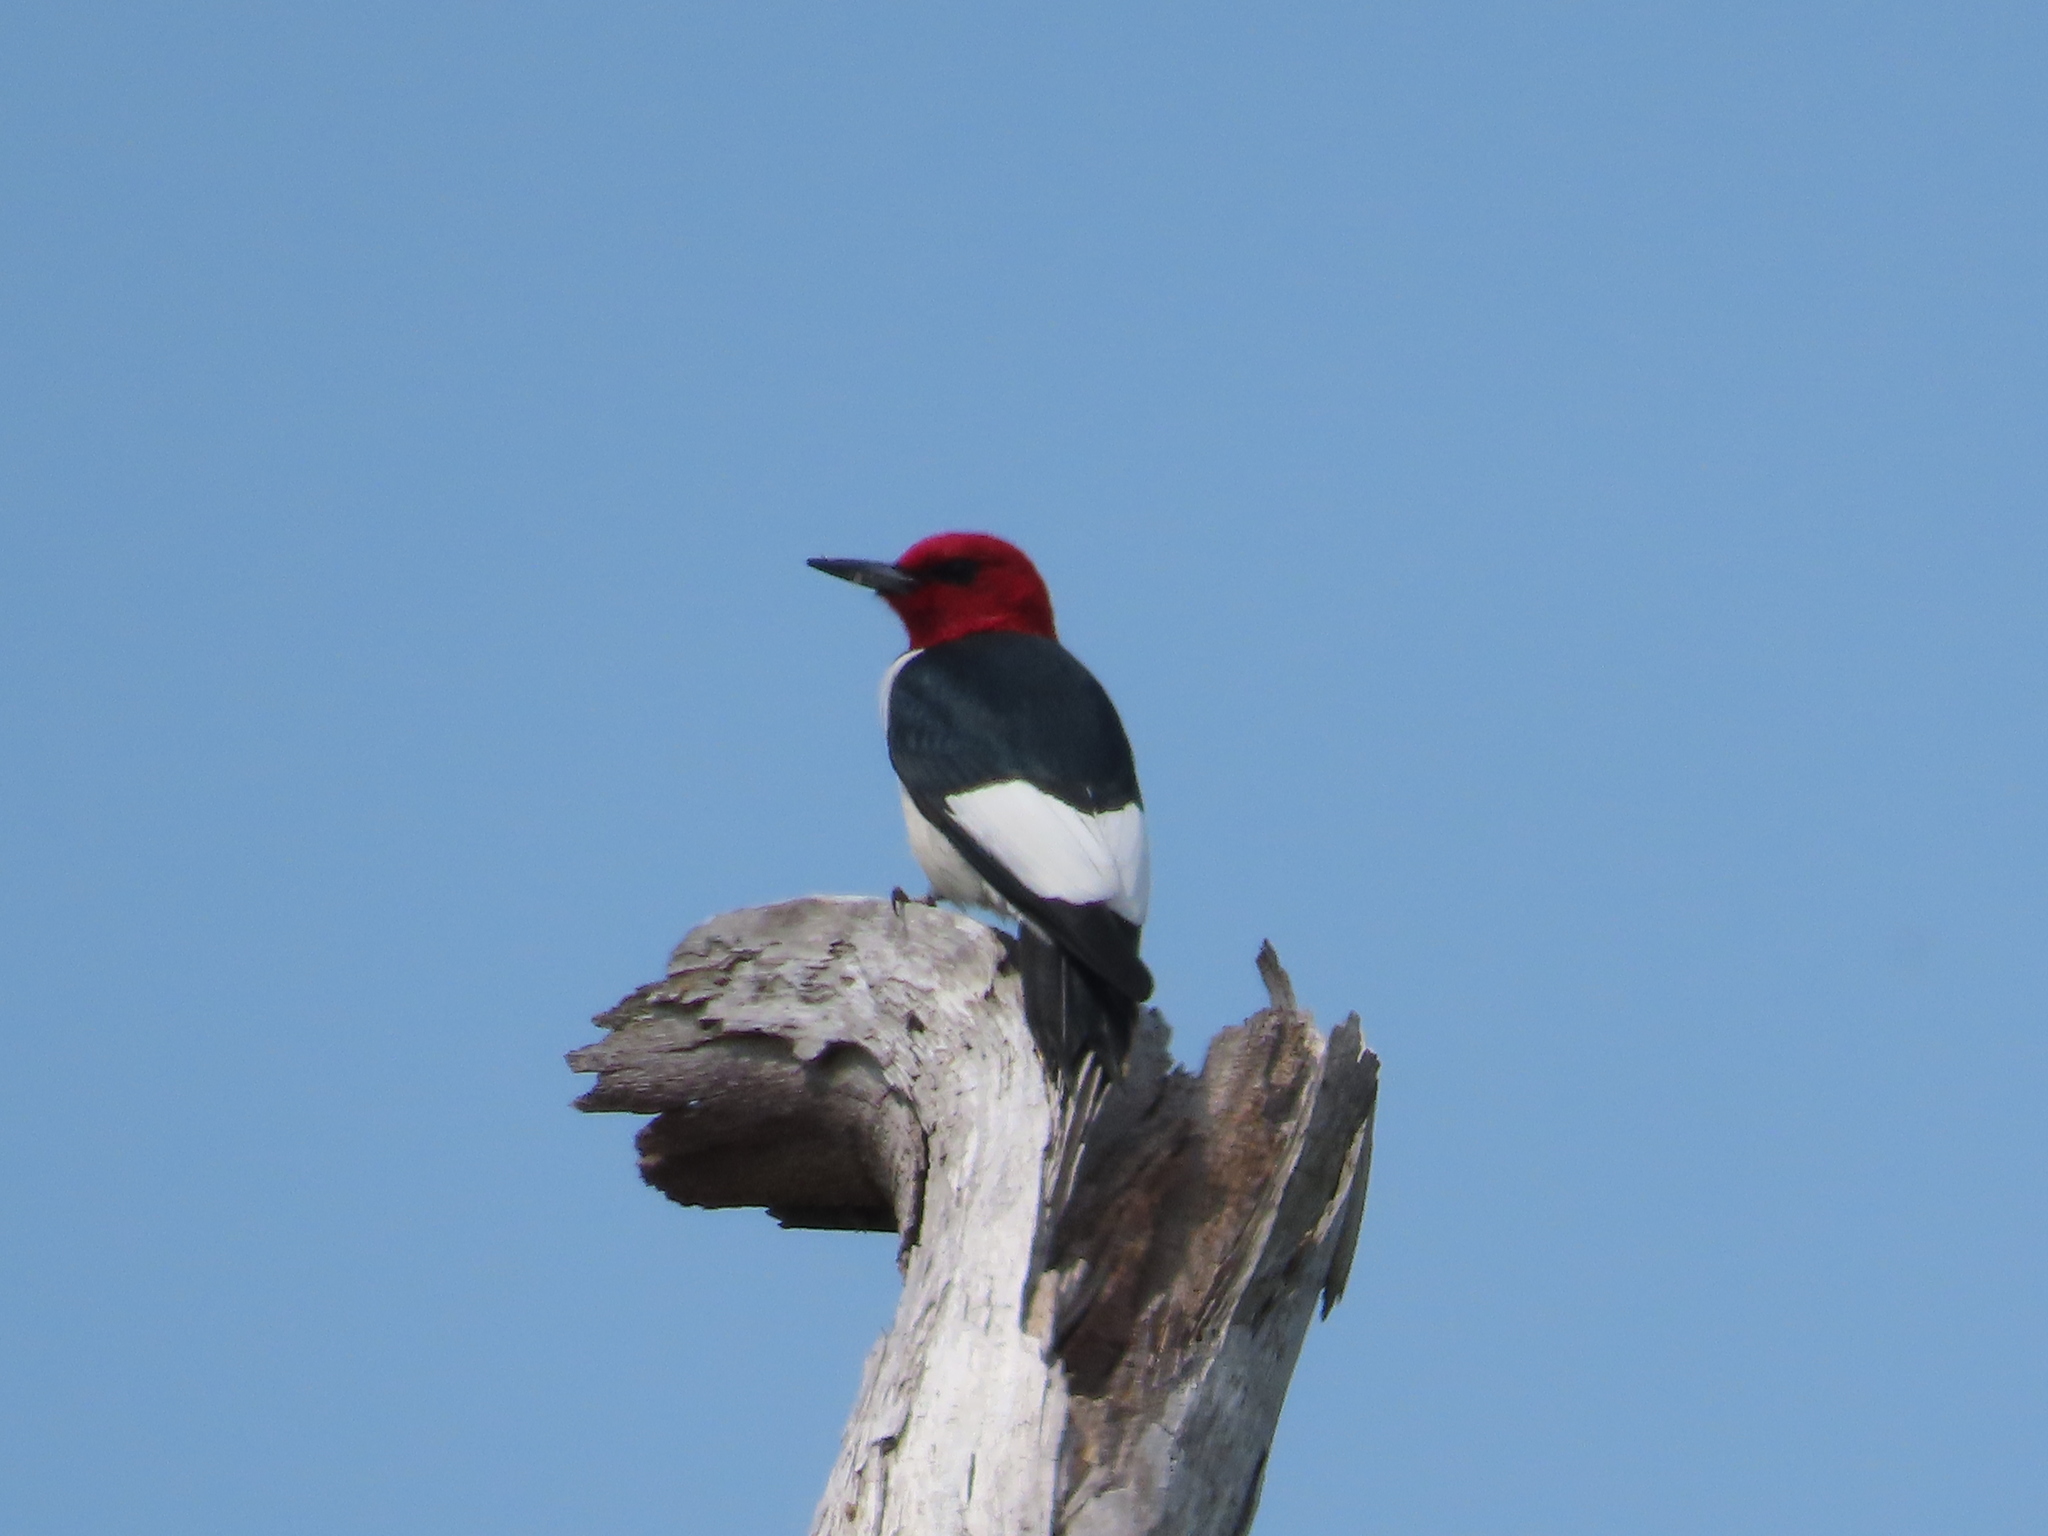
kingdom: Animalia
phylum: Chordata
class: Aves
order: Piciformes
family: Picidae
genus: Melanerpes
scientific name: Melanerpes erythrocephalus
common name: Red-headed woodpecker
